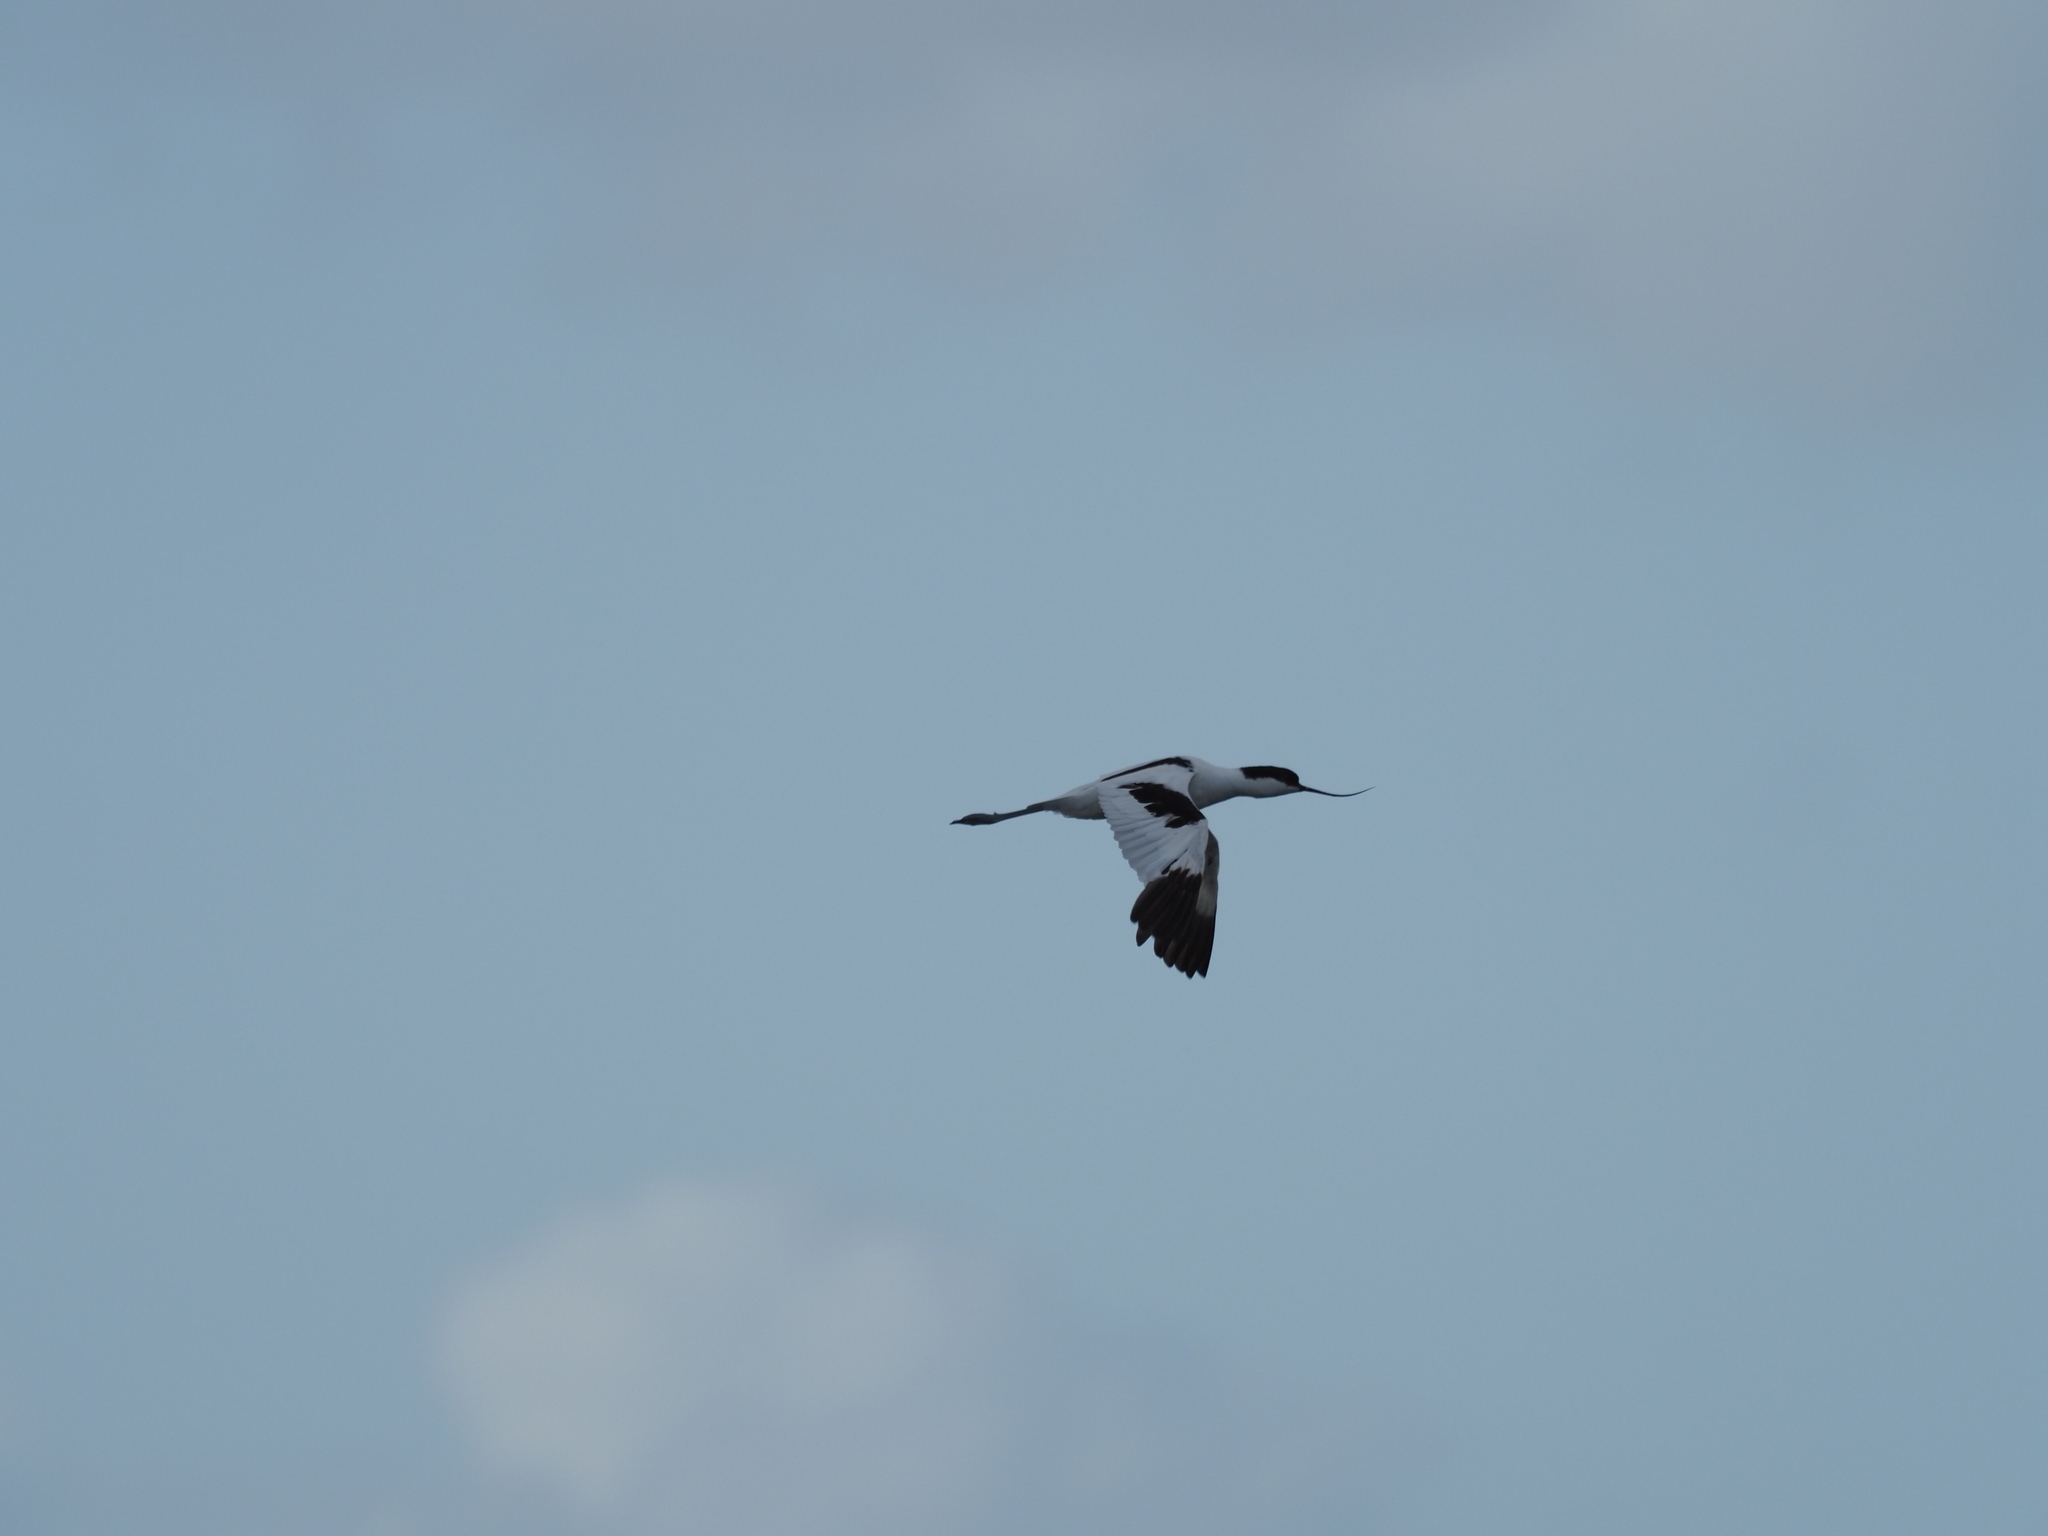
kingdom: Animalia
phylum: Chordata
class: Aves
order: Charadriiformes
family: Recurvirostridae
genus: Recurvirostra
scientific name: Recurvirostra avosetta
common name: Pied avocet
